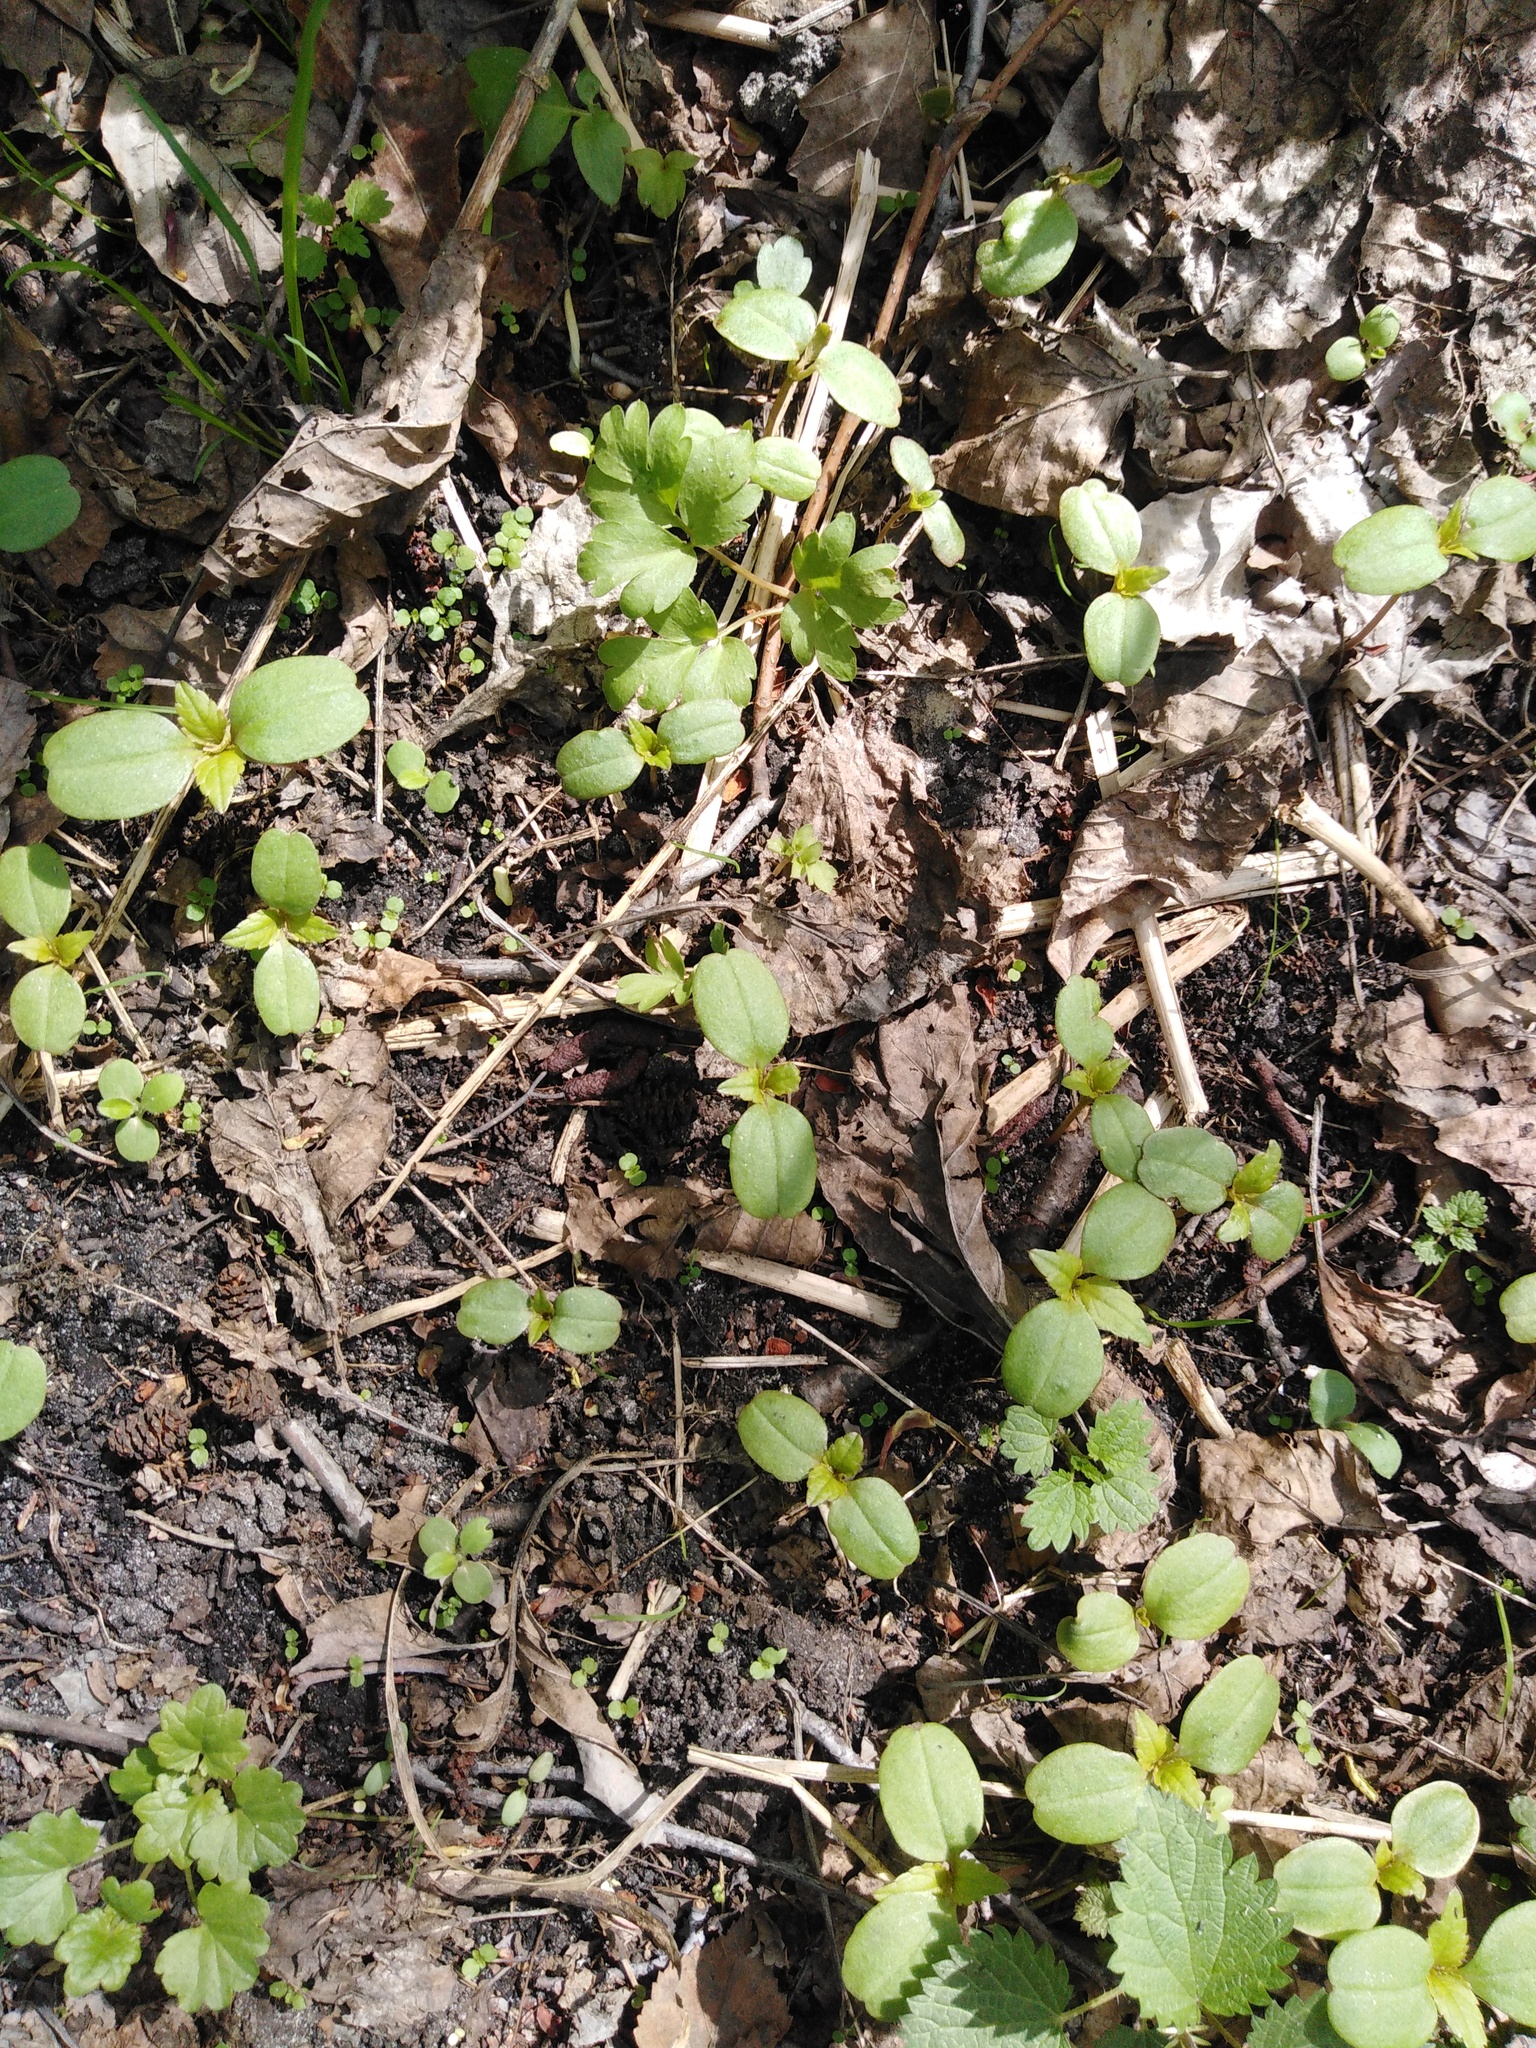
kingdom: Plantae
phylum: Tracheophyta
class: Magnoliopsida
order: Ericales
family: Balsaminaceae
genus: Impatiens
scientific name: Impatiens parviflora
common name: Small balsam
